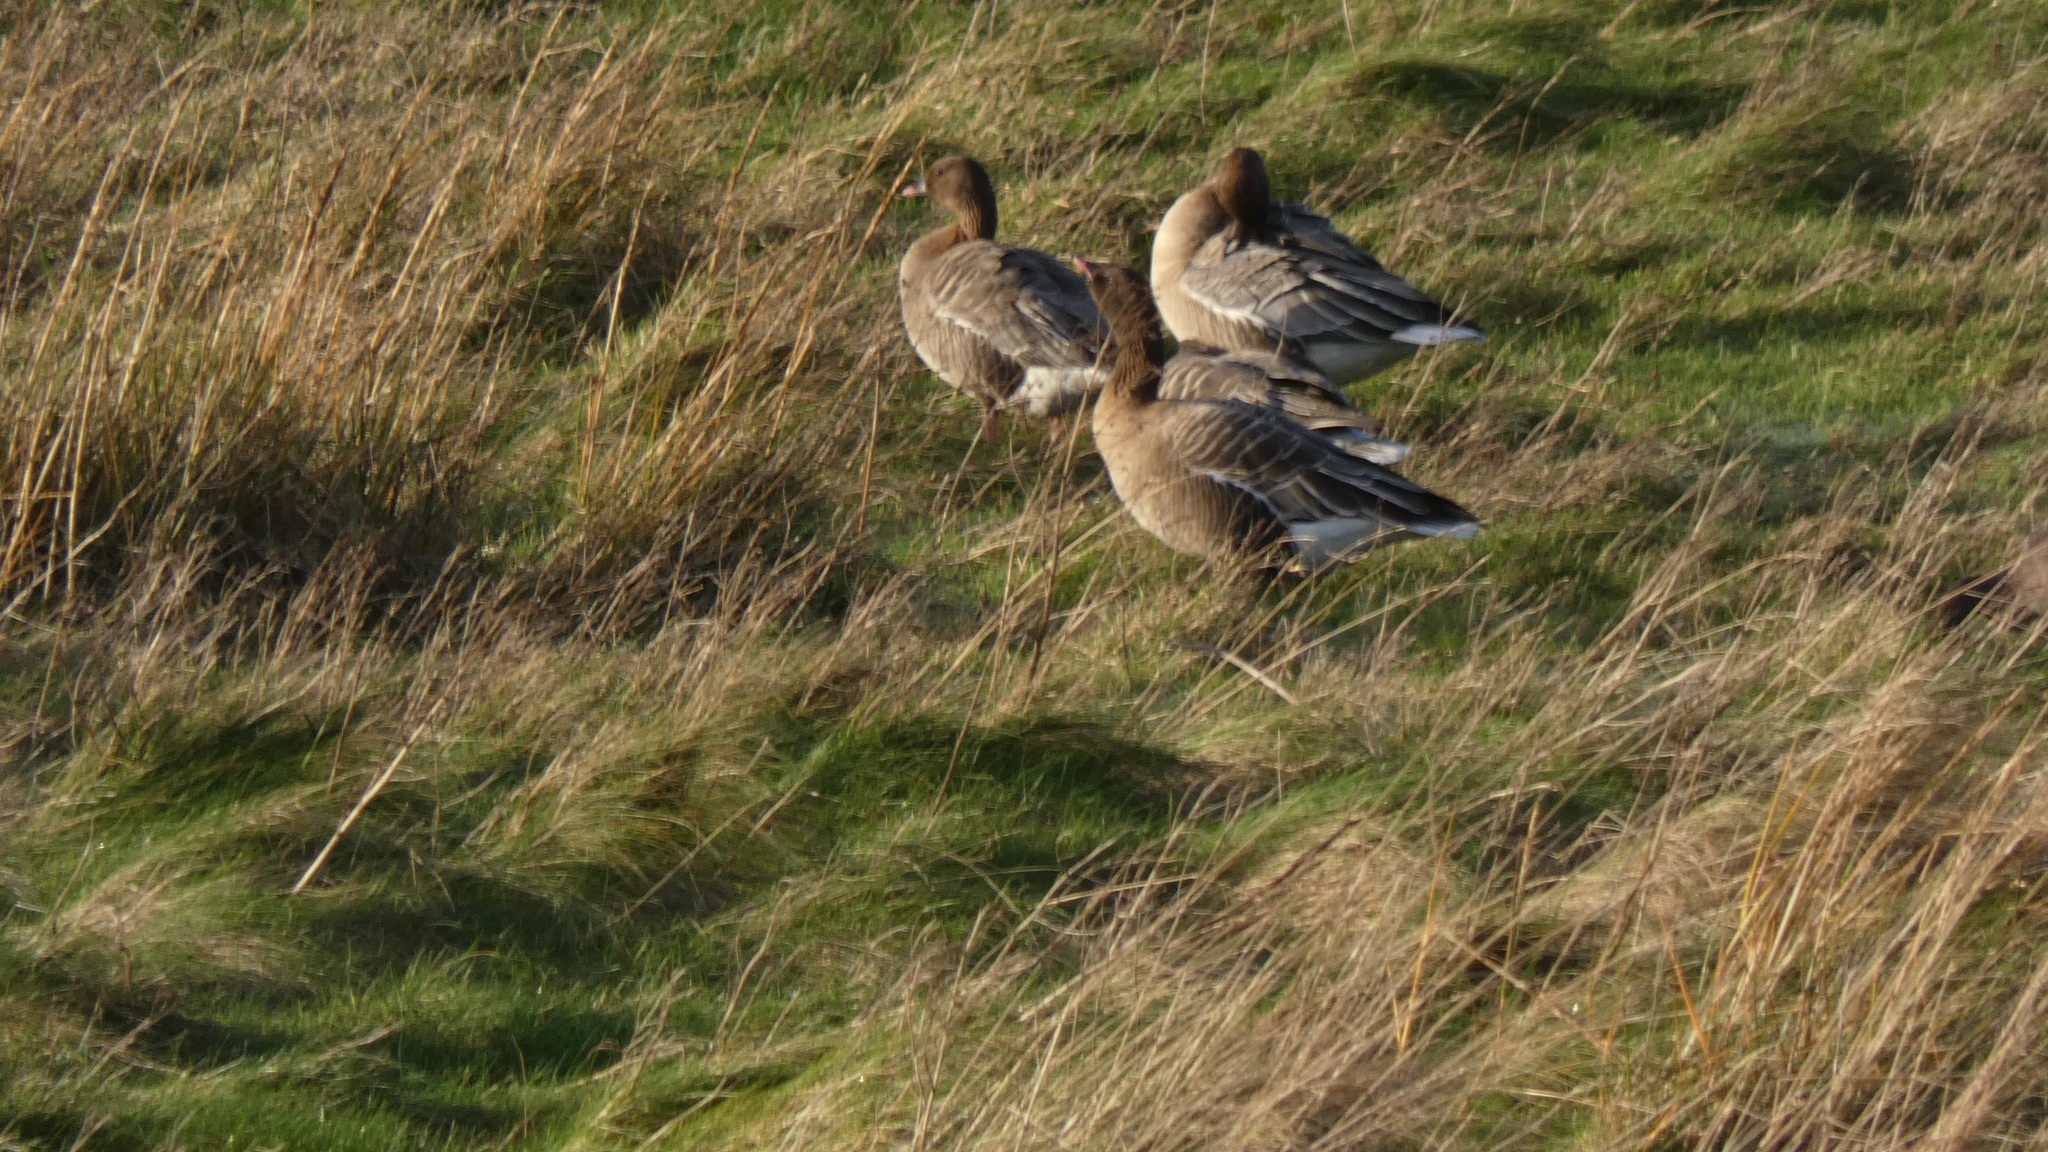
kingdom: Animalia
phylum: Chordata
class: Aves
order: Anseriformes
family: Anatidae
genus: Anser
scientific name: Anser brachyrhynchus
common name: Pink-footed goose
